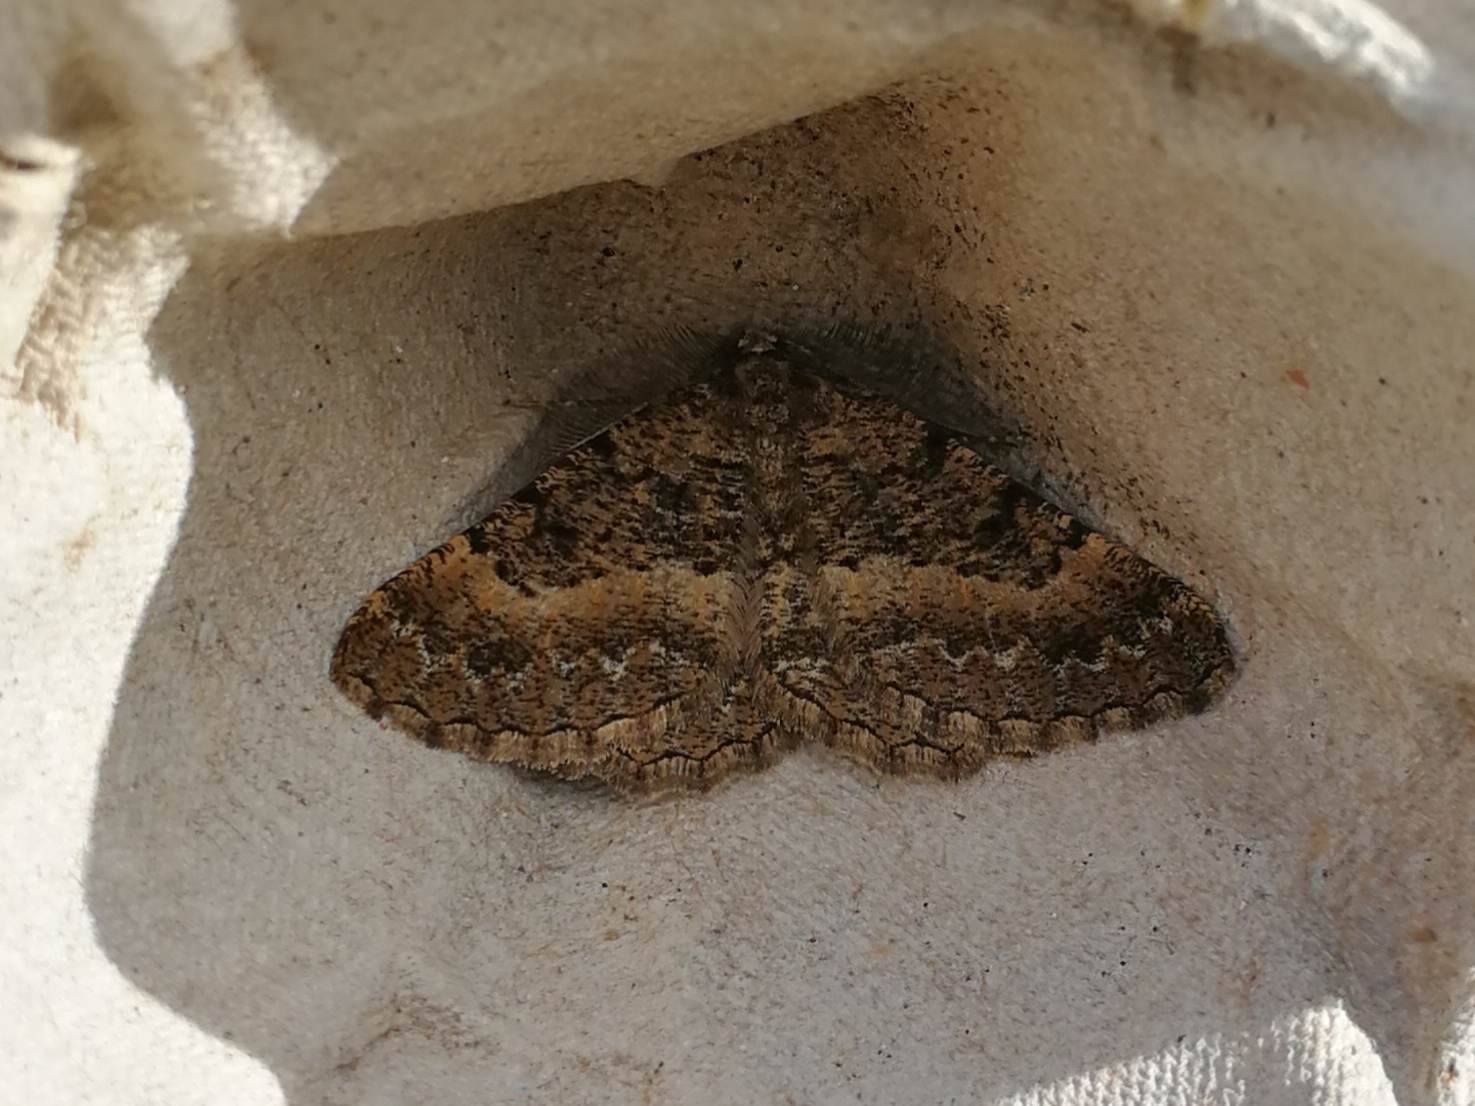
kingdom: Animalia
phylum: Arthropoda
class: Insecta
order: Lepidoptera
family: Geometridae
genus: Selidosema
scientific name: Selidosema taeniolaria
